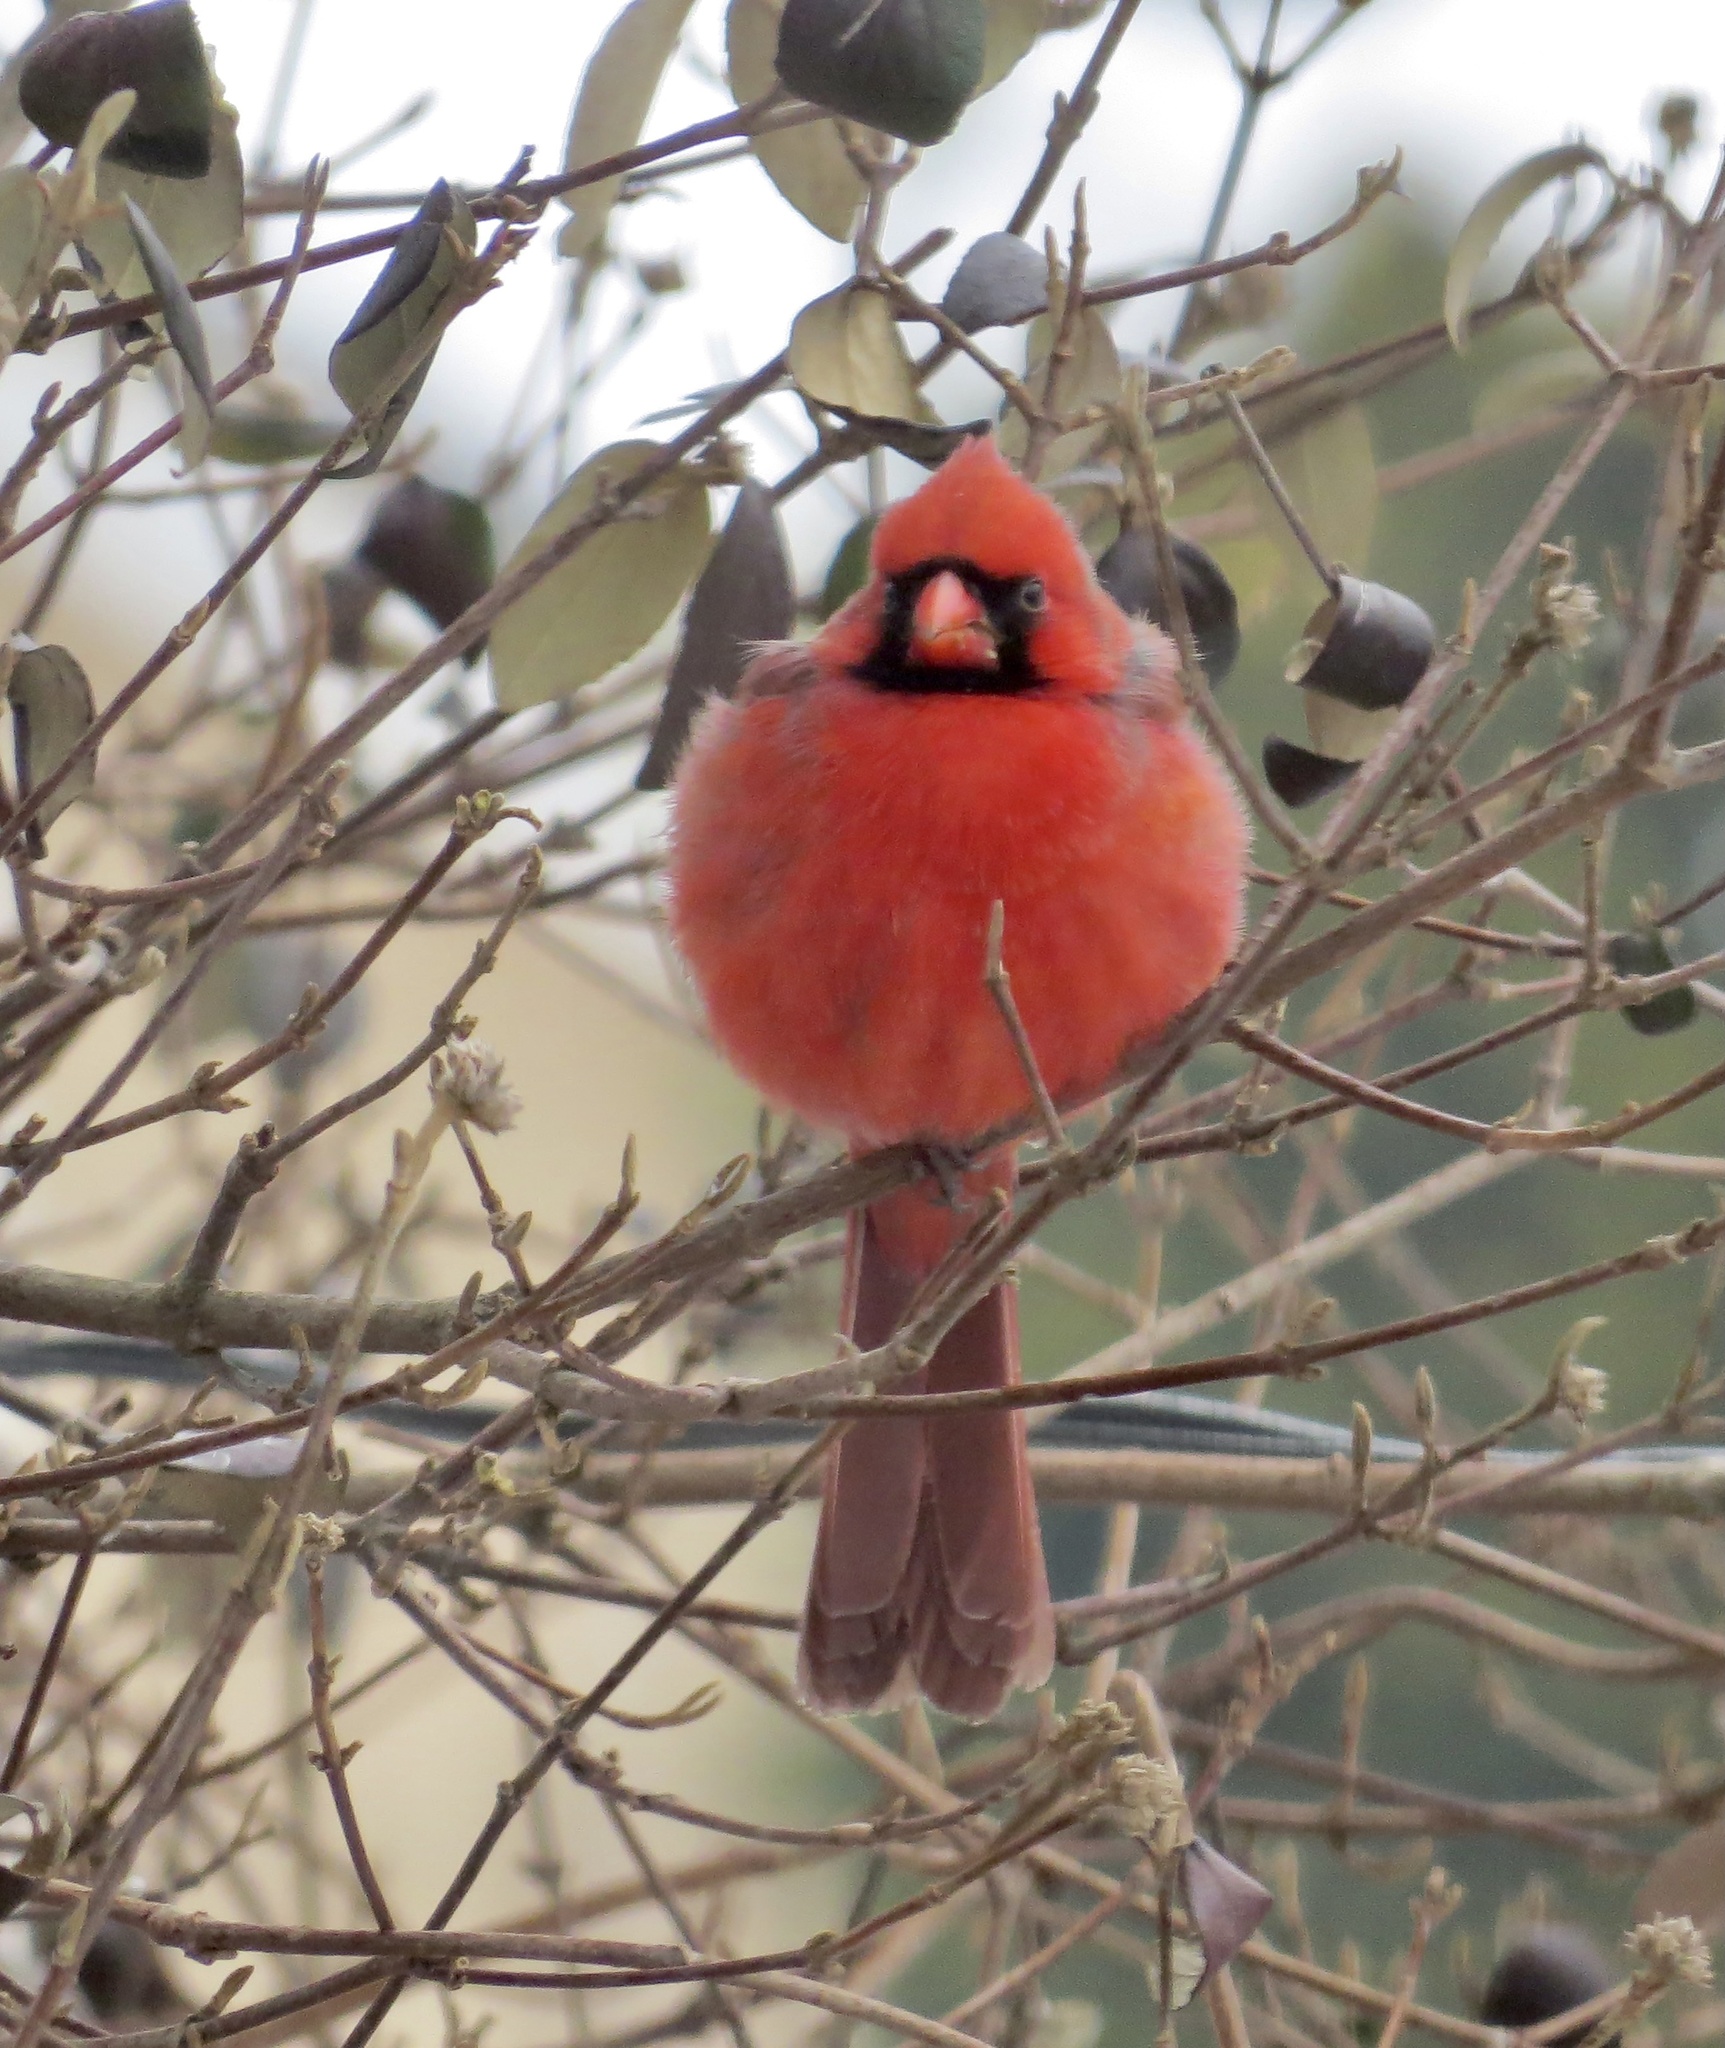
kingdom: Animalia
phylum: Chordata
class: Aves
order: Passeriformes
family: Cardinalidae
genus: Cardinalis
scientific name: Cardinalis cardinalis
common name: Northern cardinal
